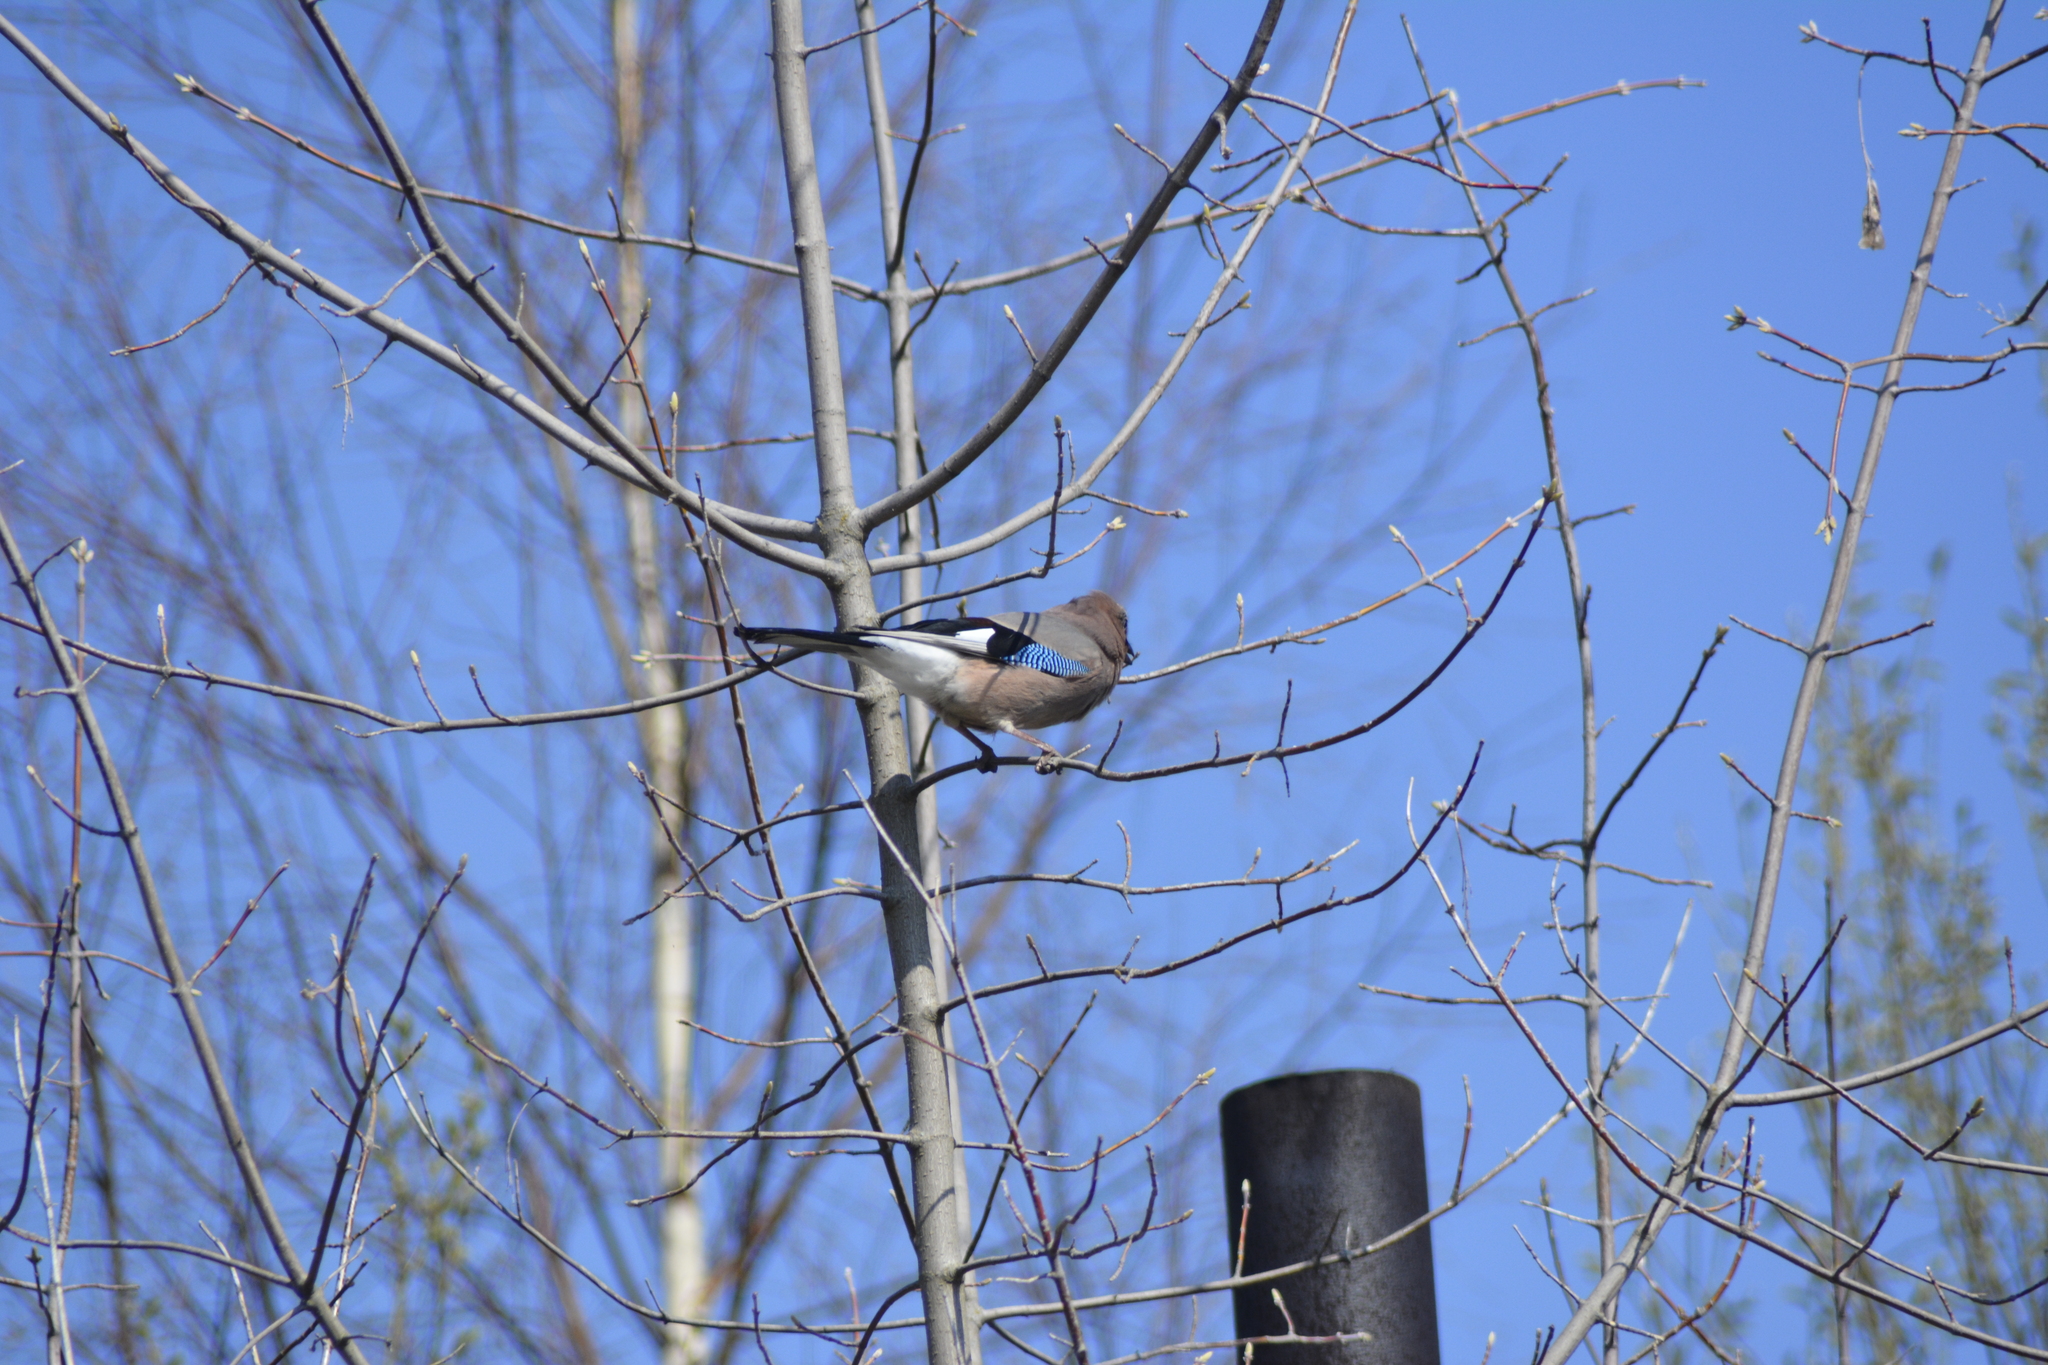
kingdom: Animalia
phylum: Chordata
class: Aves
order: Passeriformes
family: Corvidae
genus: Garrulus
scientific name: Garrulus glandarius
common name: Eurasian jay
